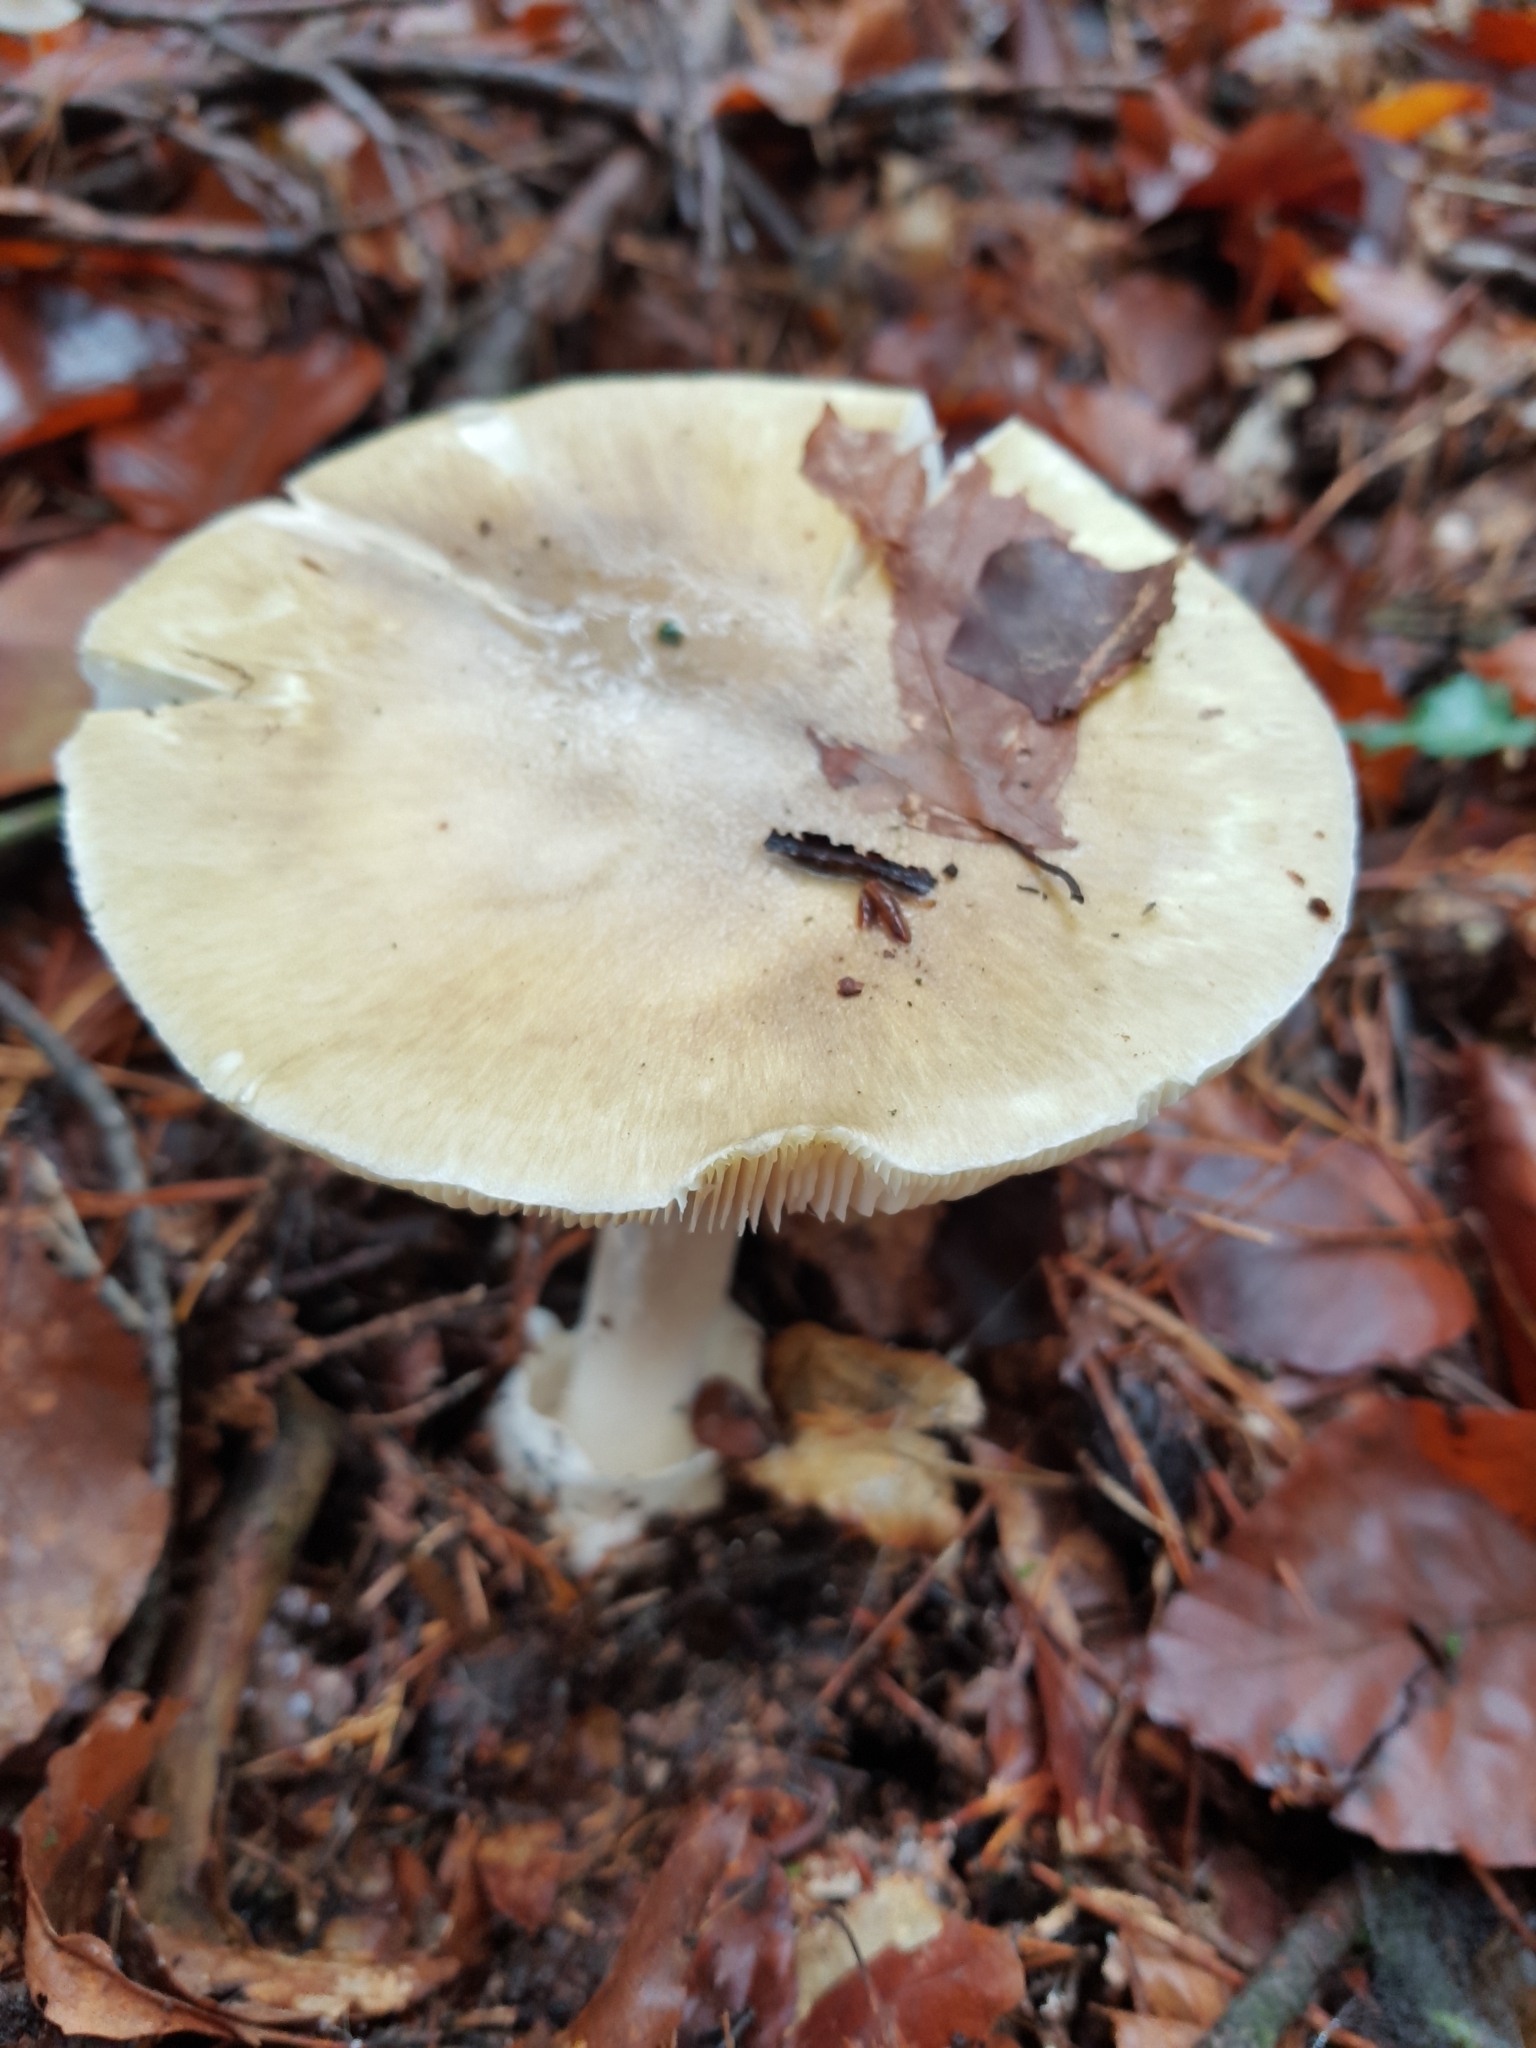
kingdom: Fungi
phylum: Basidiomycota
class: Agaricomycetes
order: Agaricales
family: Amanitaceae
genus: Amanita
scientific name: Amanita phalloides
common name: Death cap
